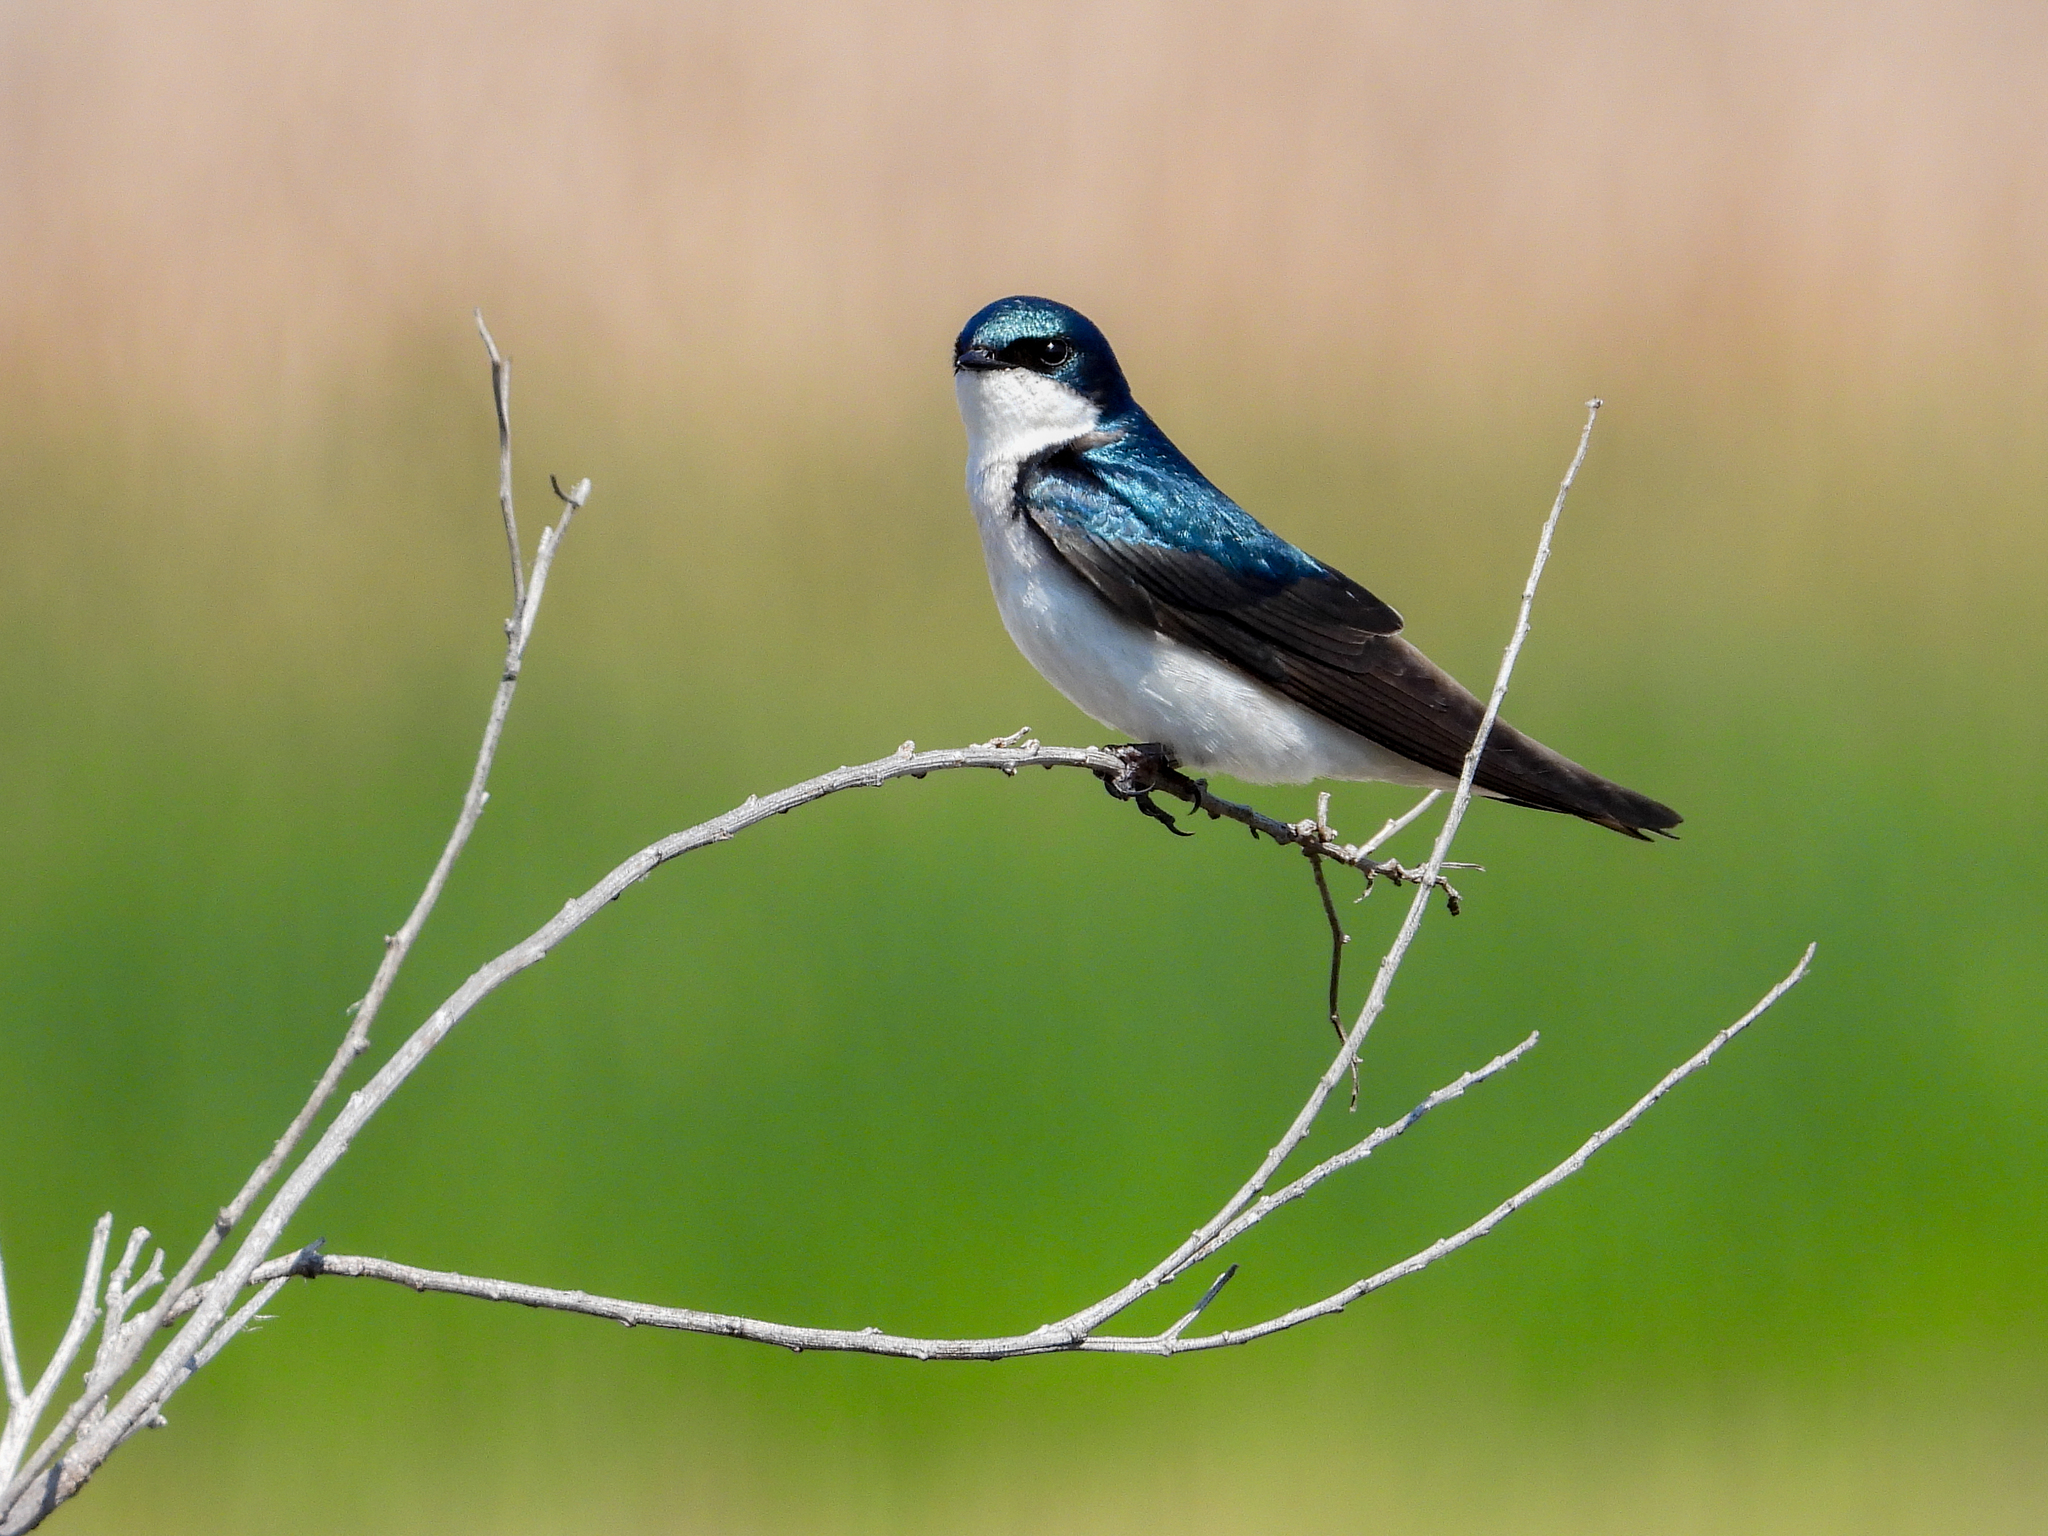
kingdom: Animalia
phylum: Chordata
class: Aves
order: Passeriformes
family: Hirundinidae
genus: Tachycineta
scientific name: Tachycineta bicolor
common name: Tree swallow
